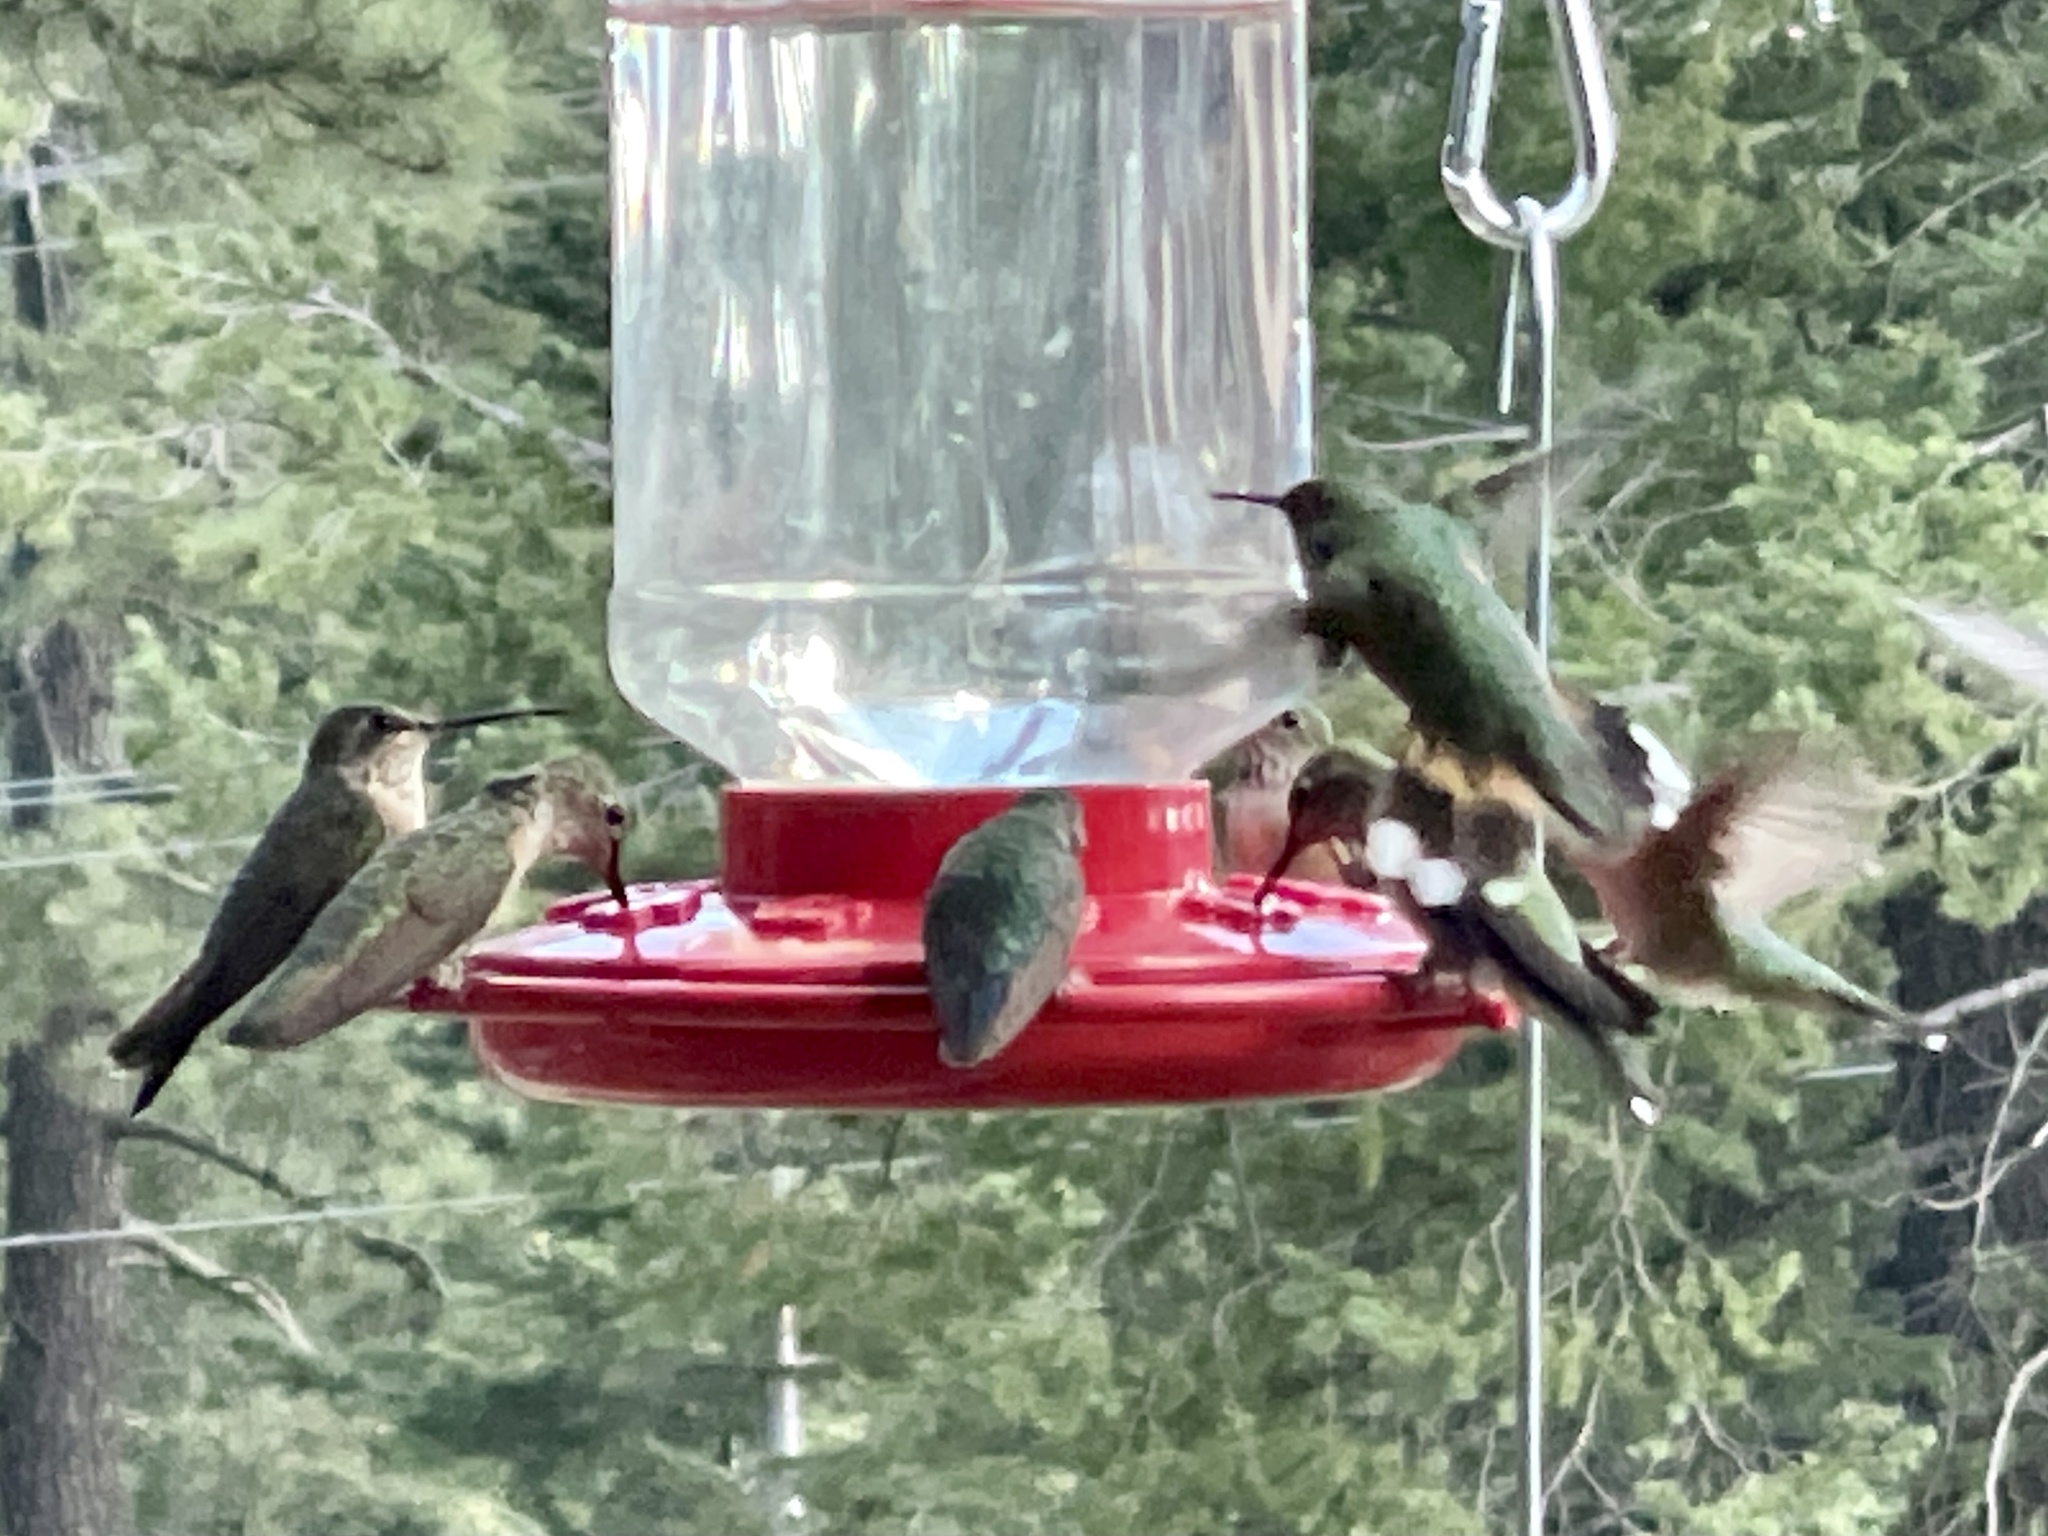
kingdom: Animalia
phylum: Chordata
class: Aves
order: Apodiformes
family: Trochilidae
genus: Selasphorus
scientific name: Selasphorus platycercus
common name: Broad-tailed hummingbird
